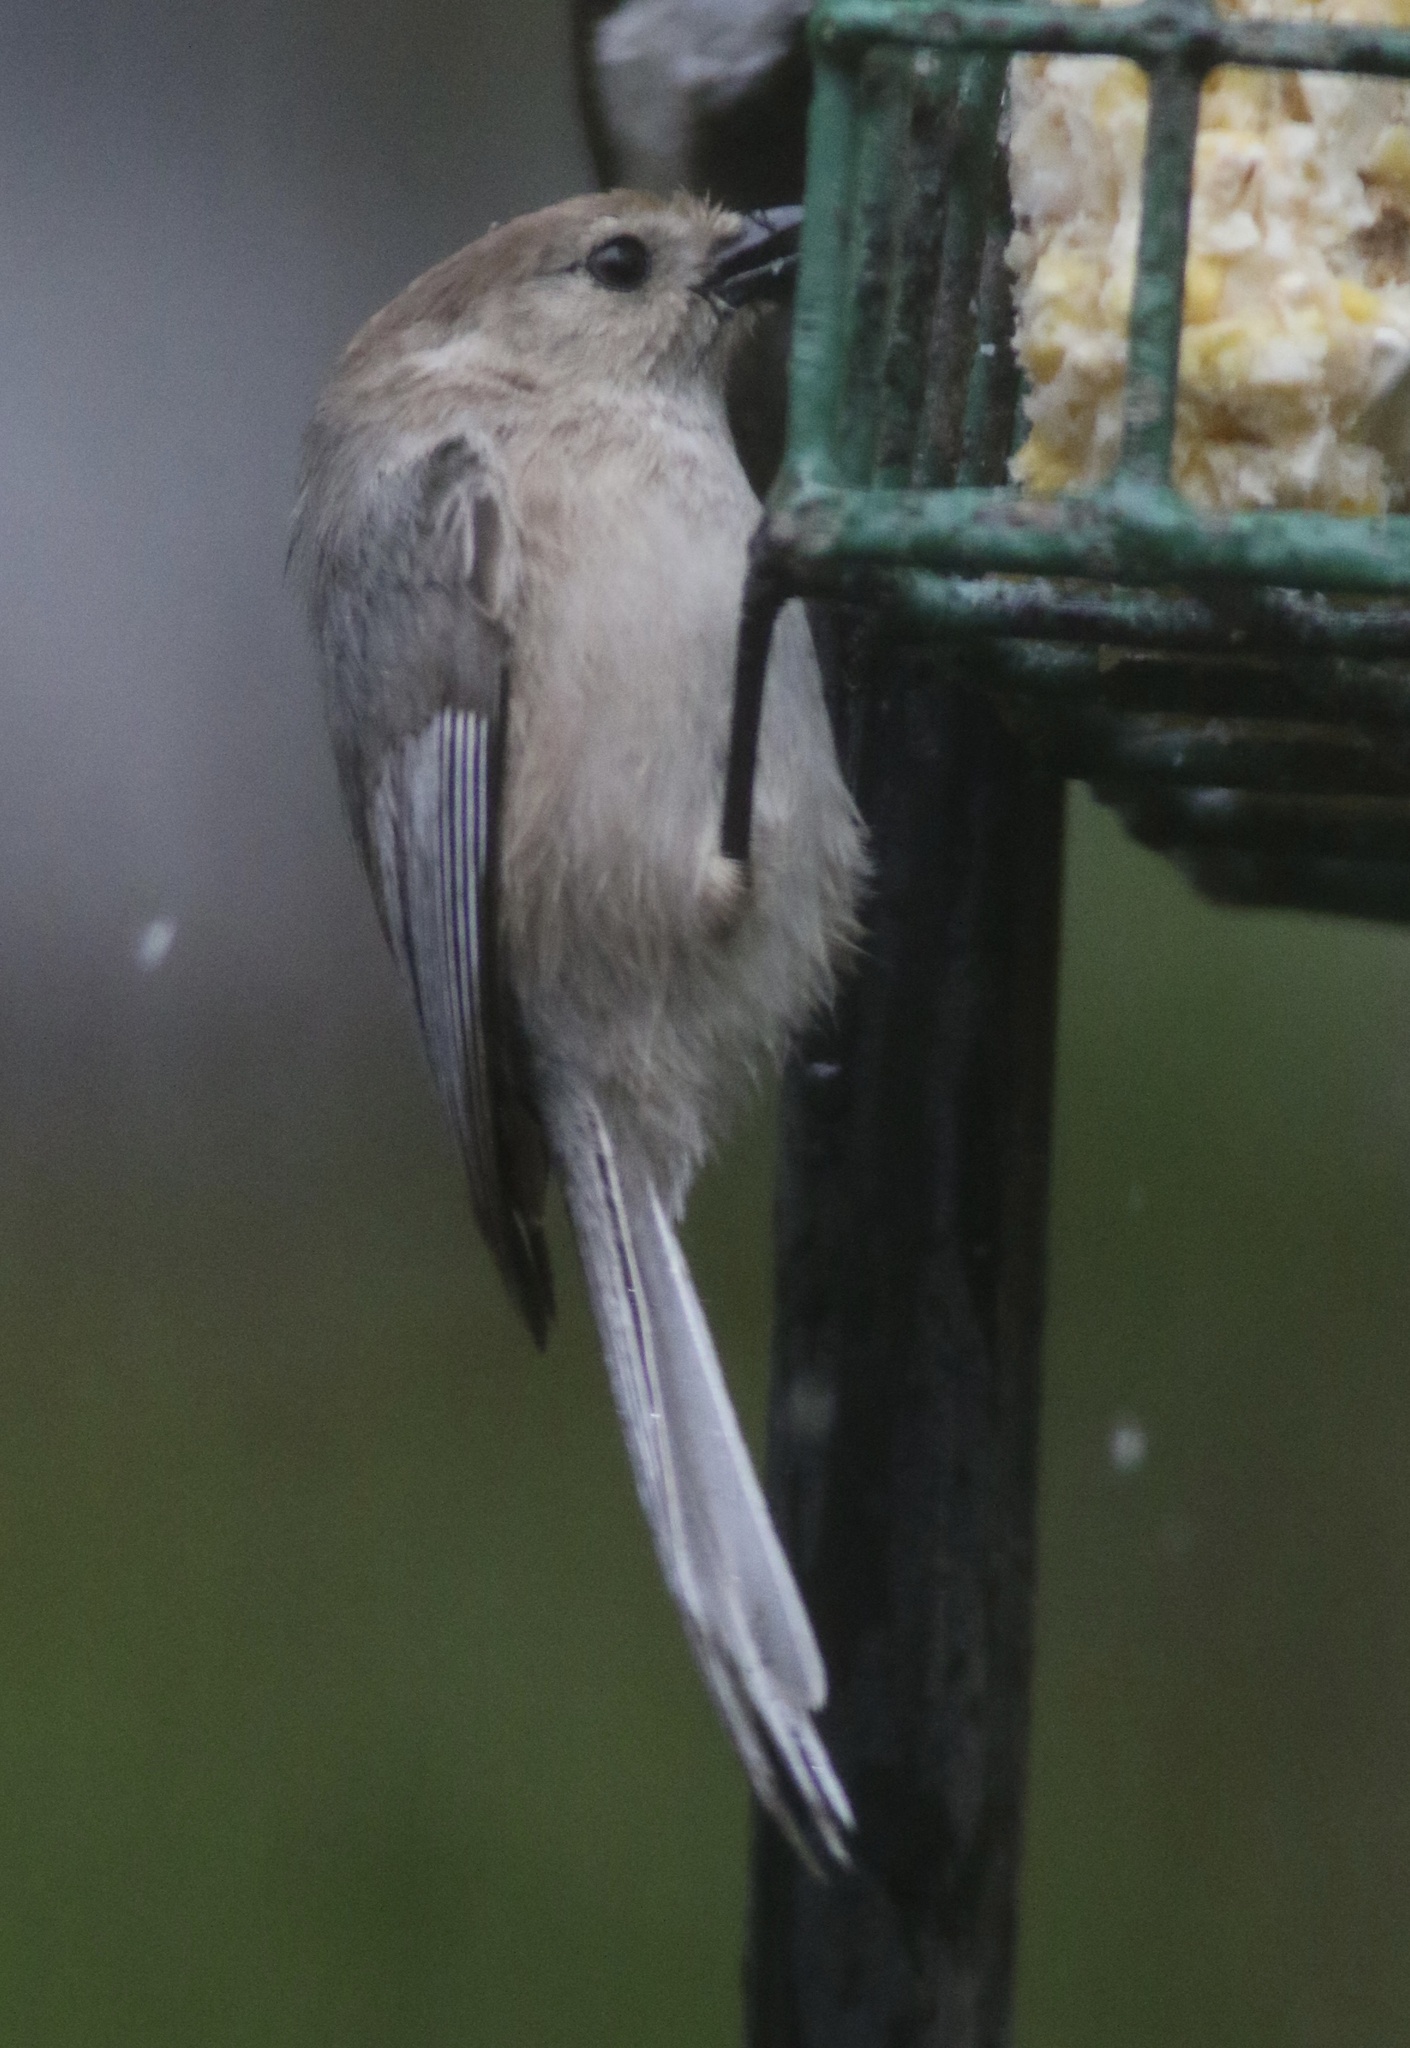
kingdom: Animalia
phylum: Chordata
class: Aves
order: Passeriformes
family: Aegithalidae
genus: Psaltriparus
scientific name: Psaltriparus minimus
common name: American bushtit
